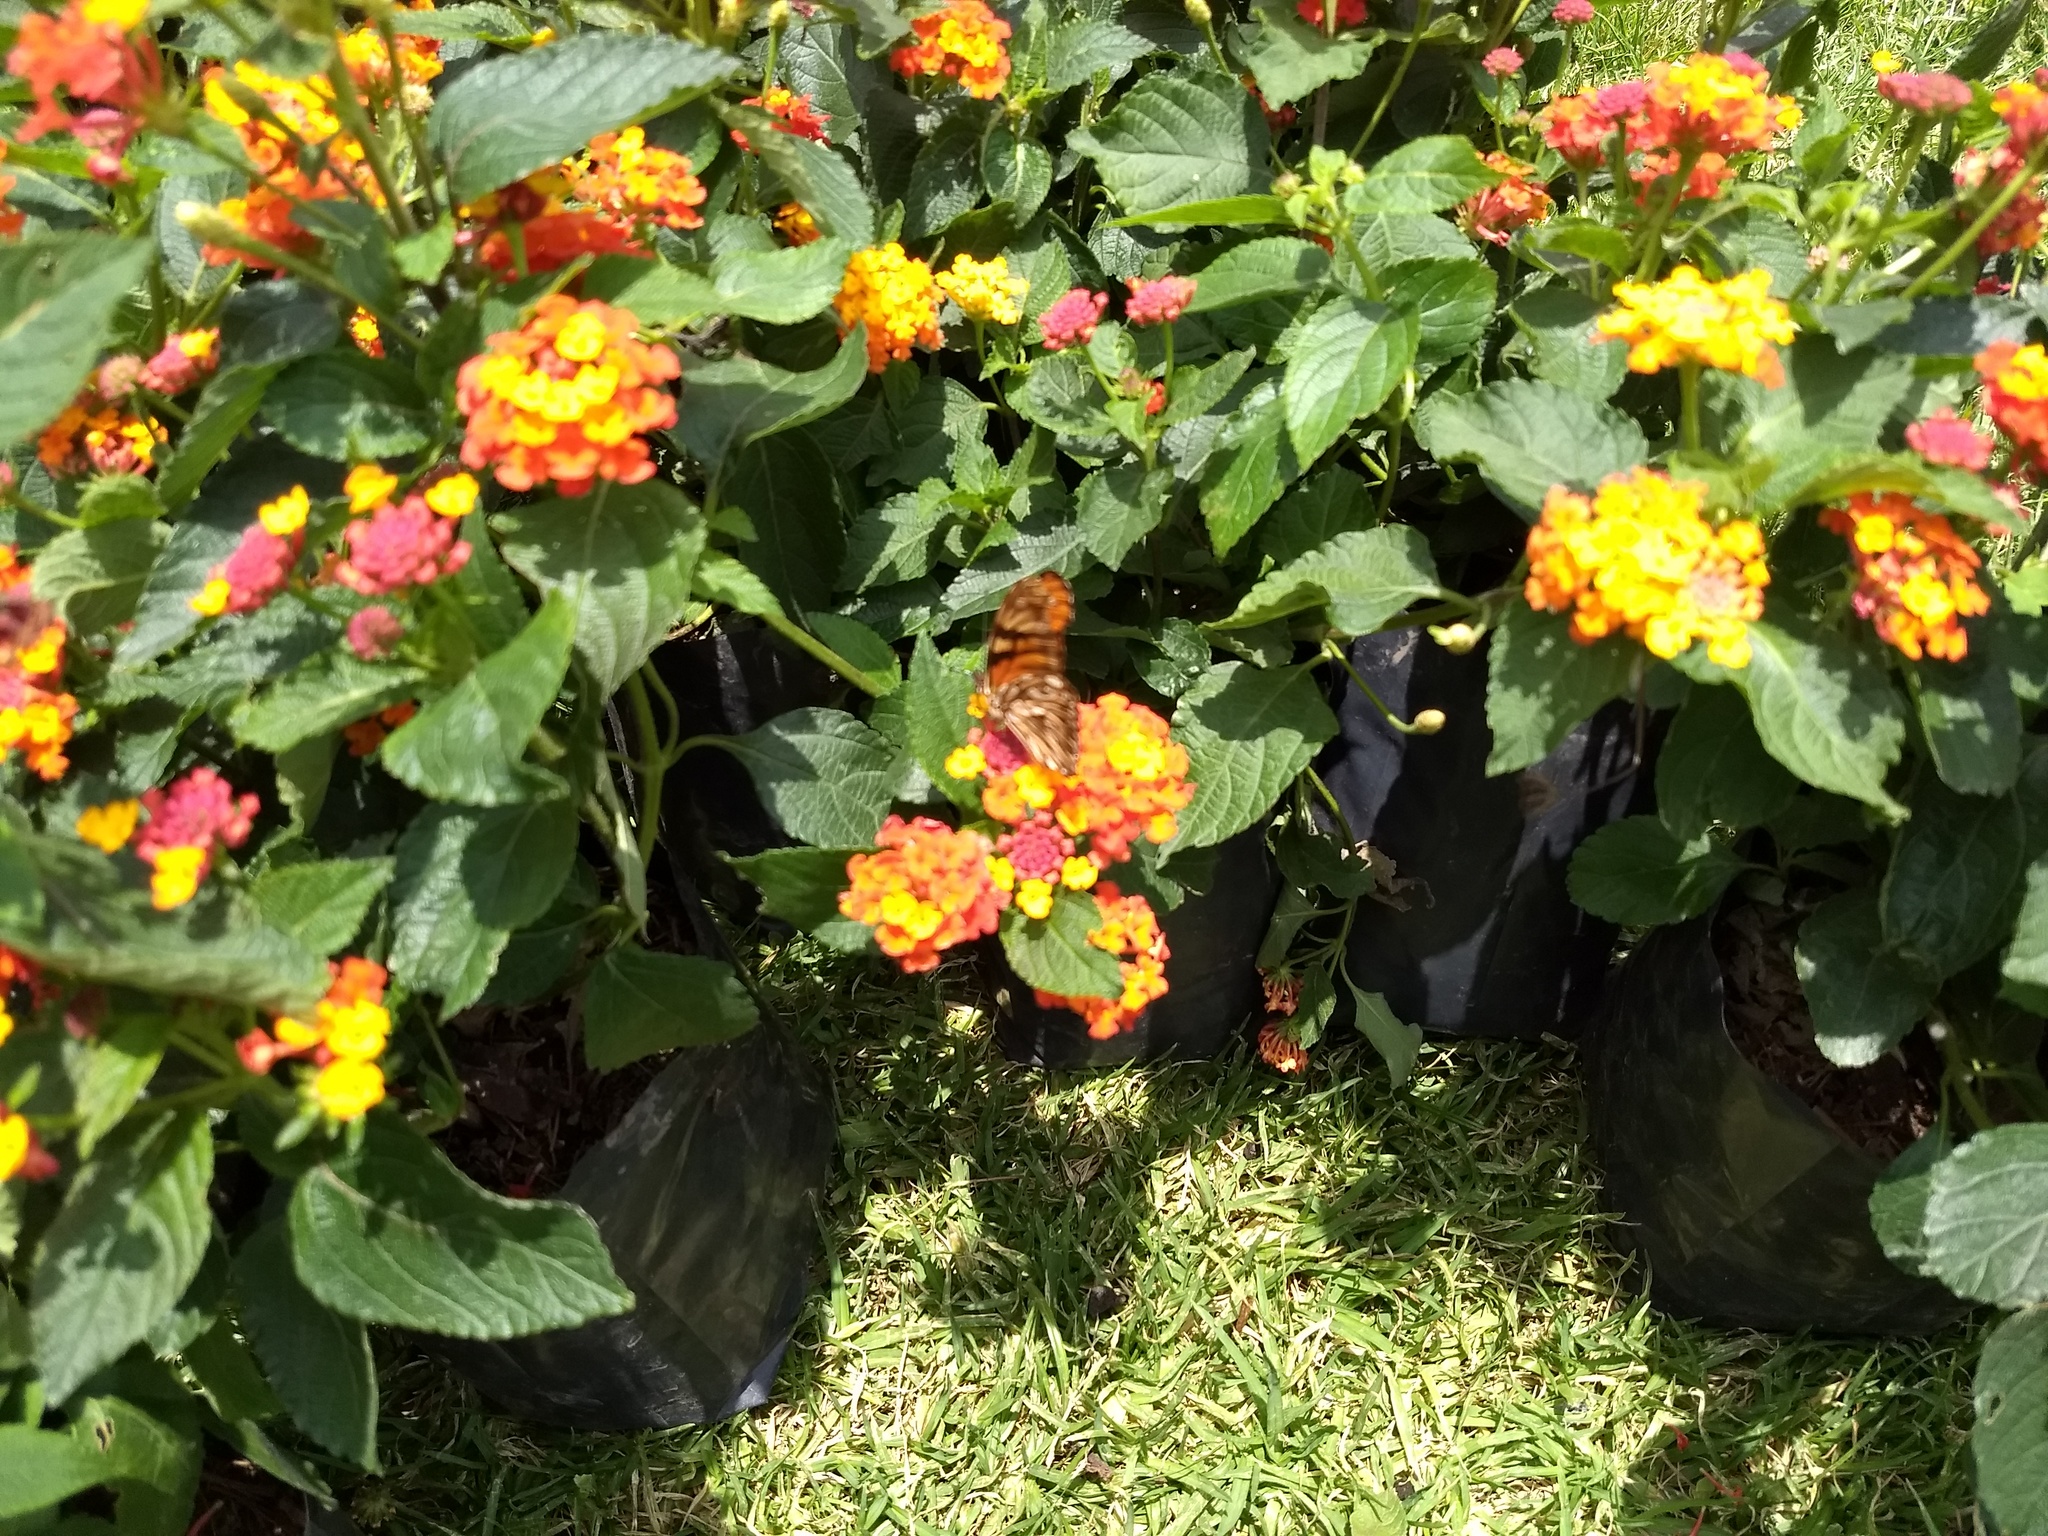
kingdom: Animalia
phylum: Arthropoda
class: Insecta
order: Lepidoptera
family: Nymphalidae
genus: Dione
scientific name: Dione juno
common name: Juno silverspot
